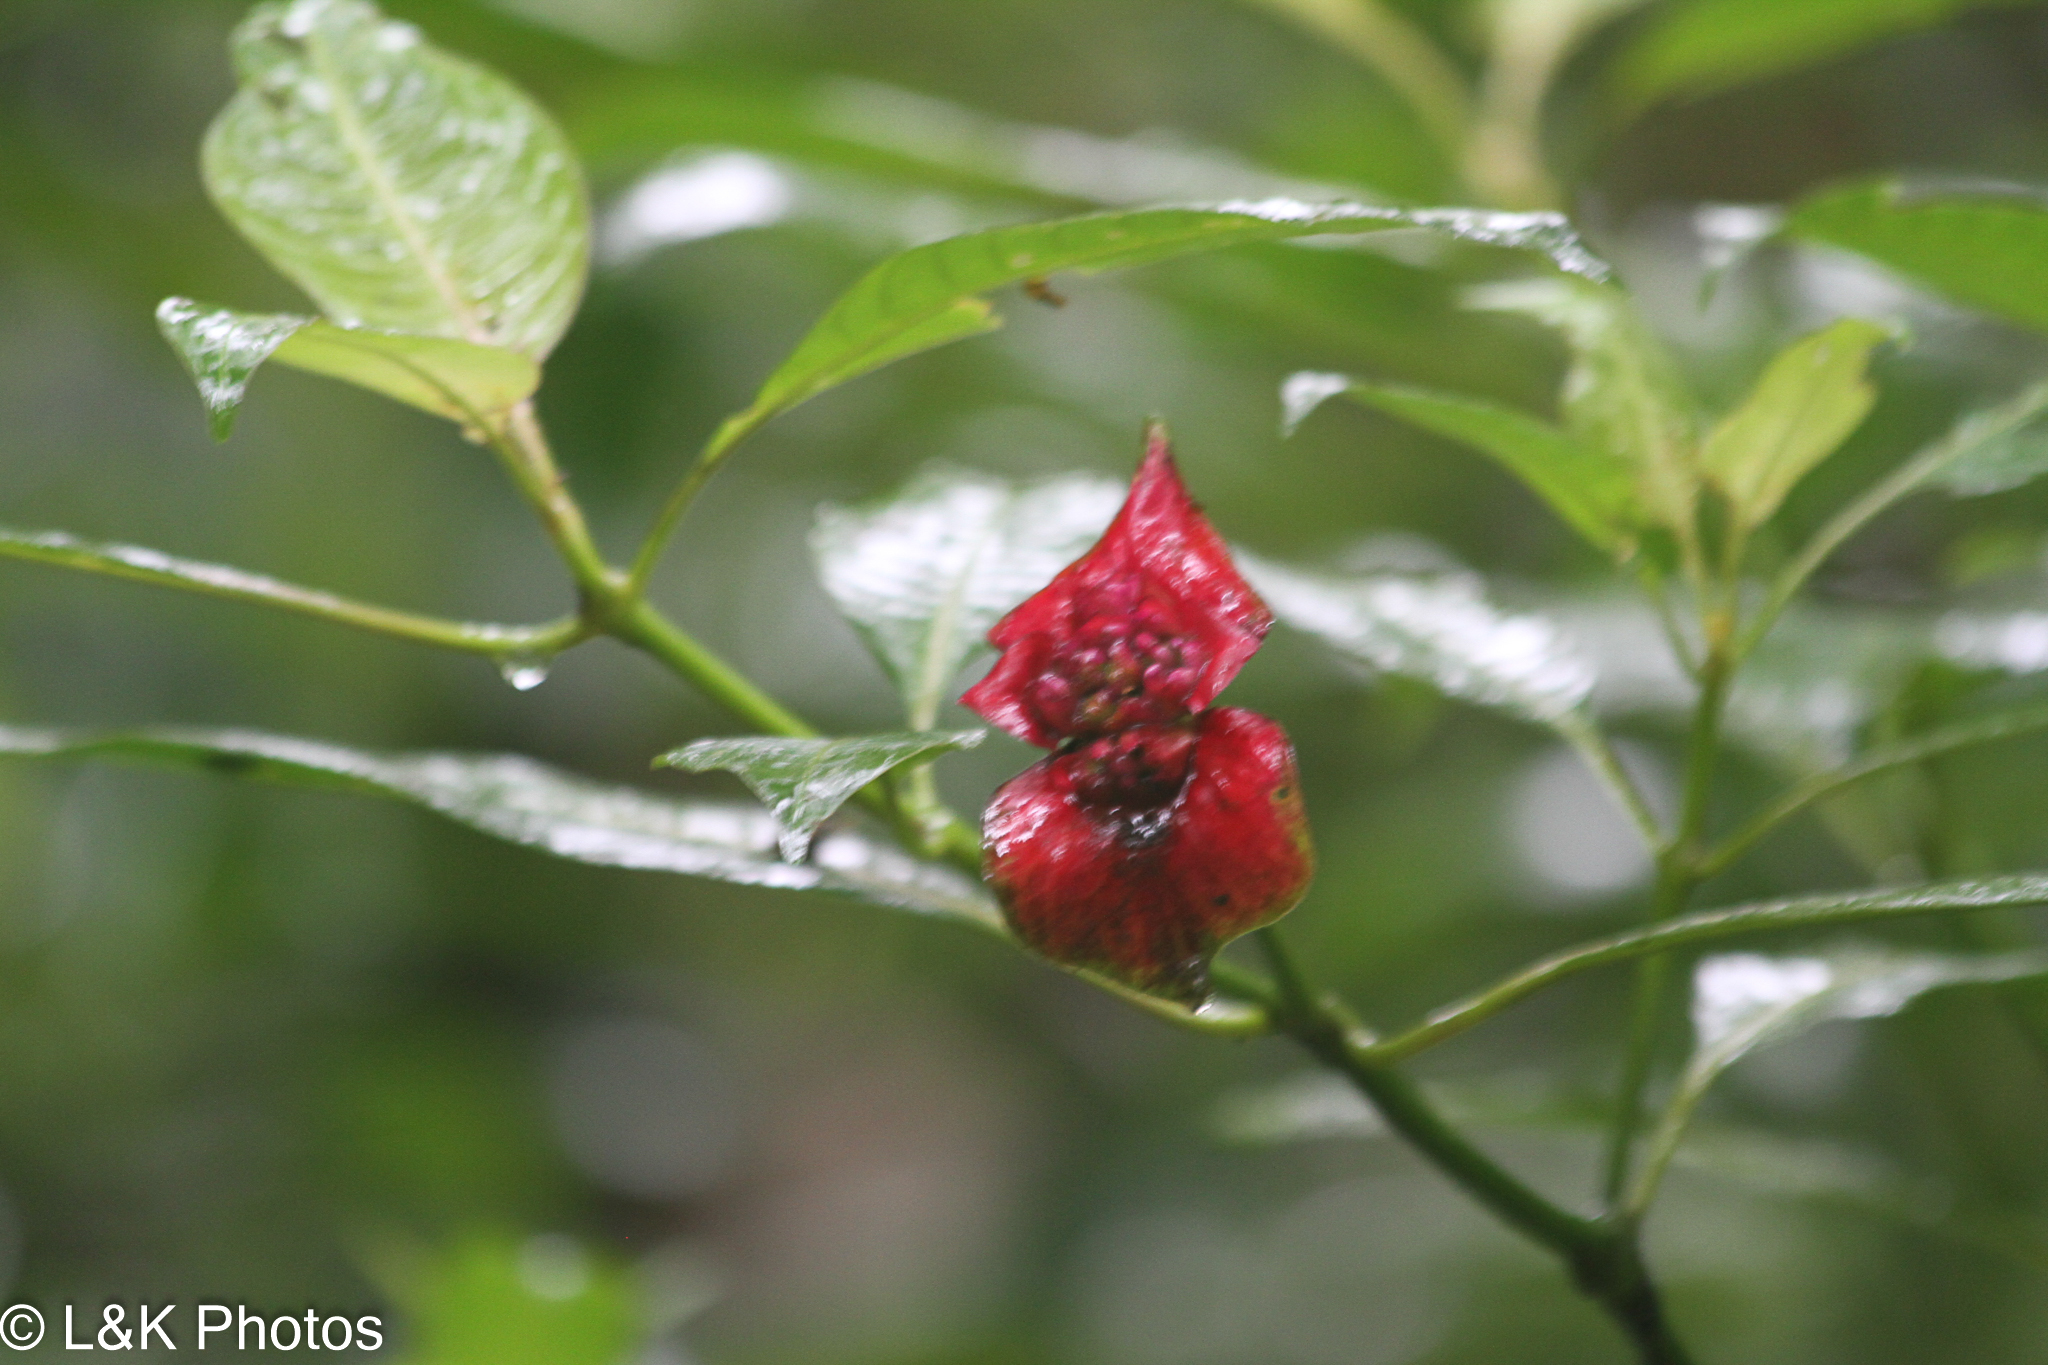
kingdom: Plantae
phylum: Tracheophyta
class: Magnoliopsida
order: Gentianales
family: Rubiaceae
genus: Palicourea
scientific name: Palicourea elata
